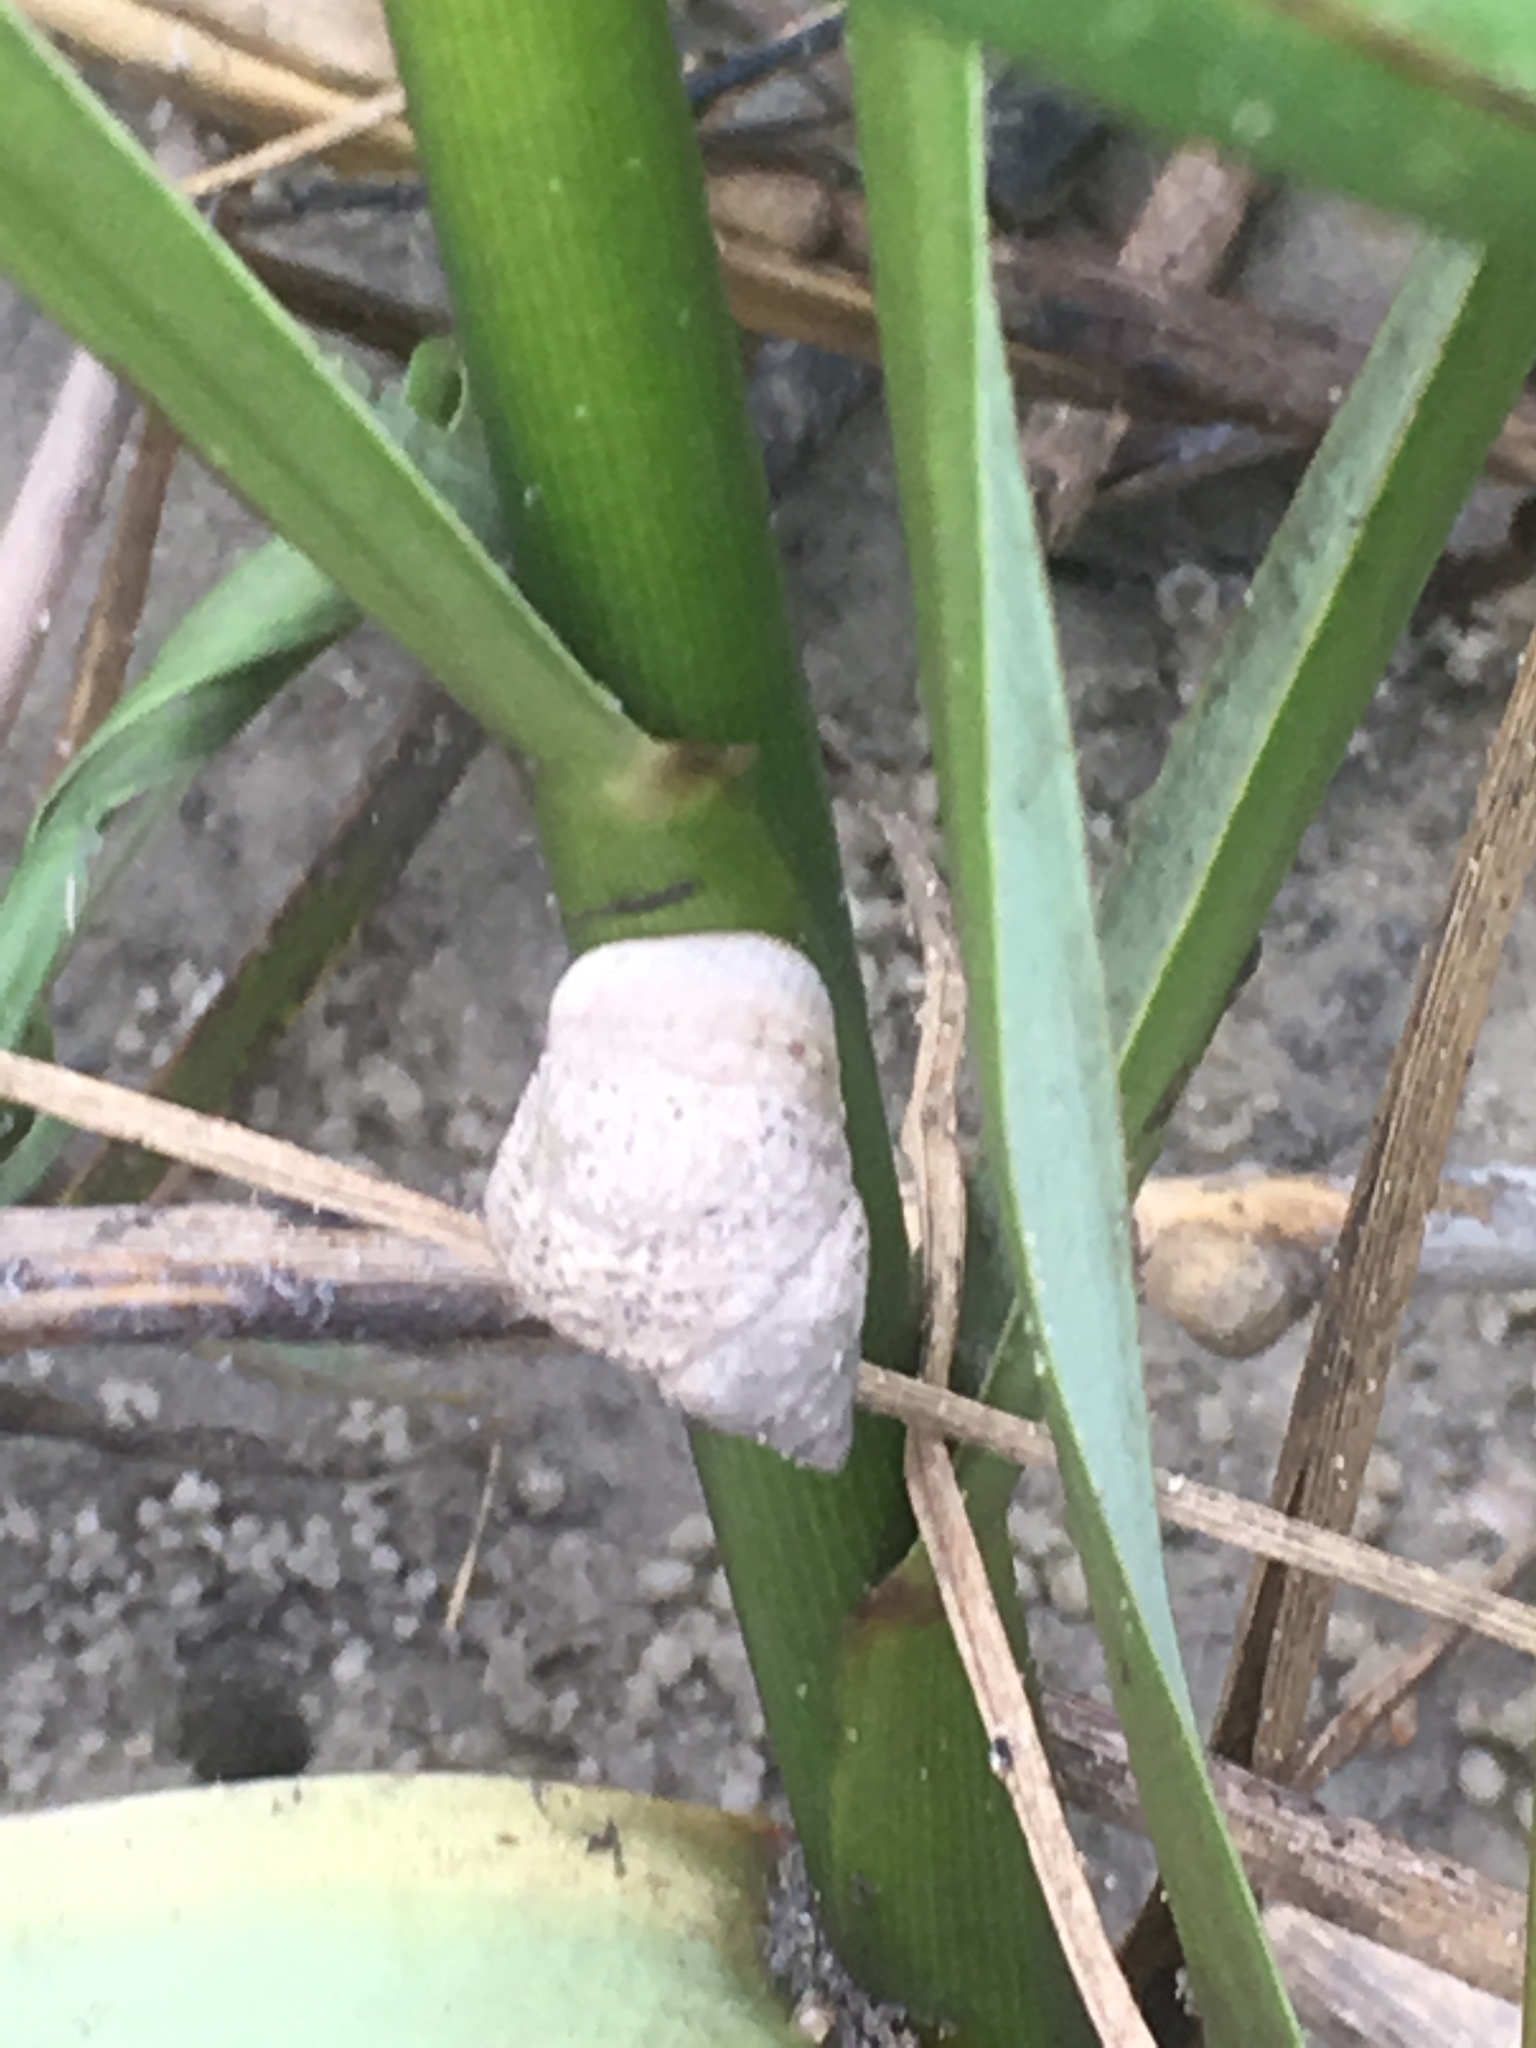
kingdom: Animalia
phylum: Mollusca
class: Gastropoda
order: Littorinimorpha
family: Littorinidae
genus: Littoraria
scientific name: Littoraria irrorata
